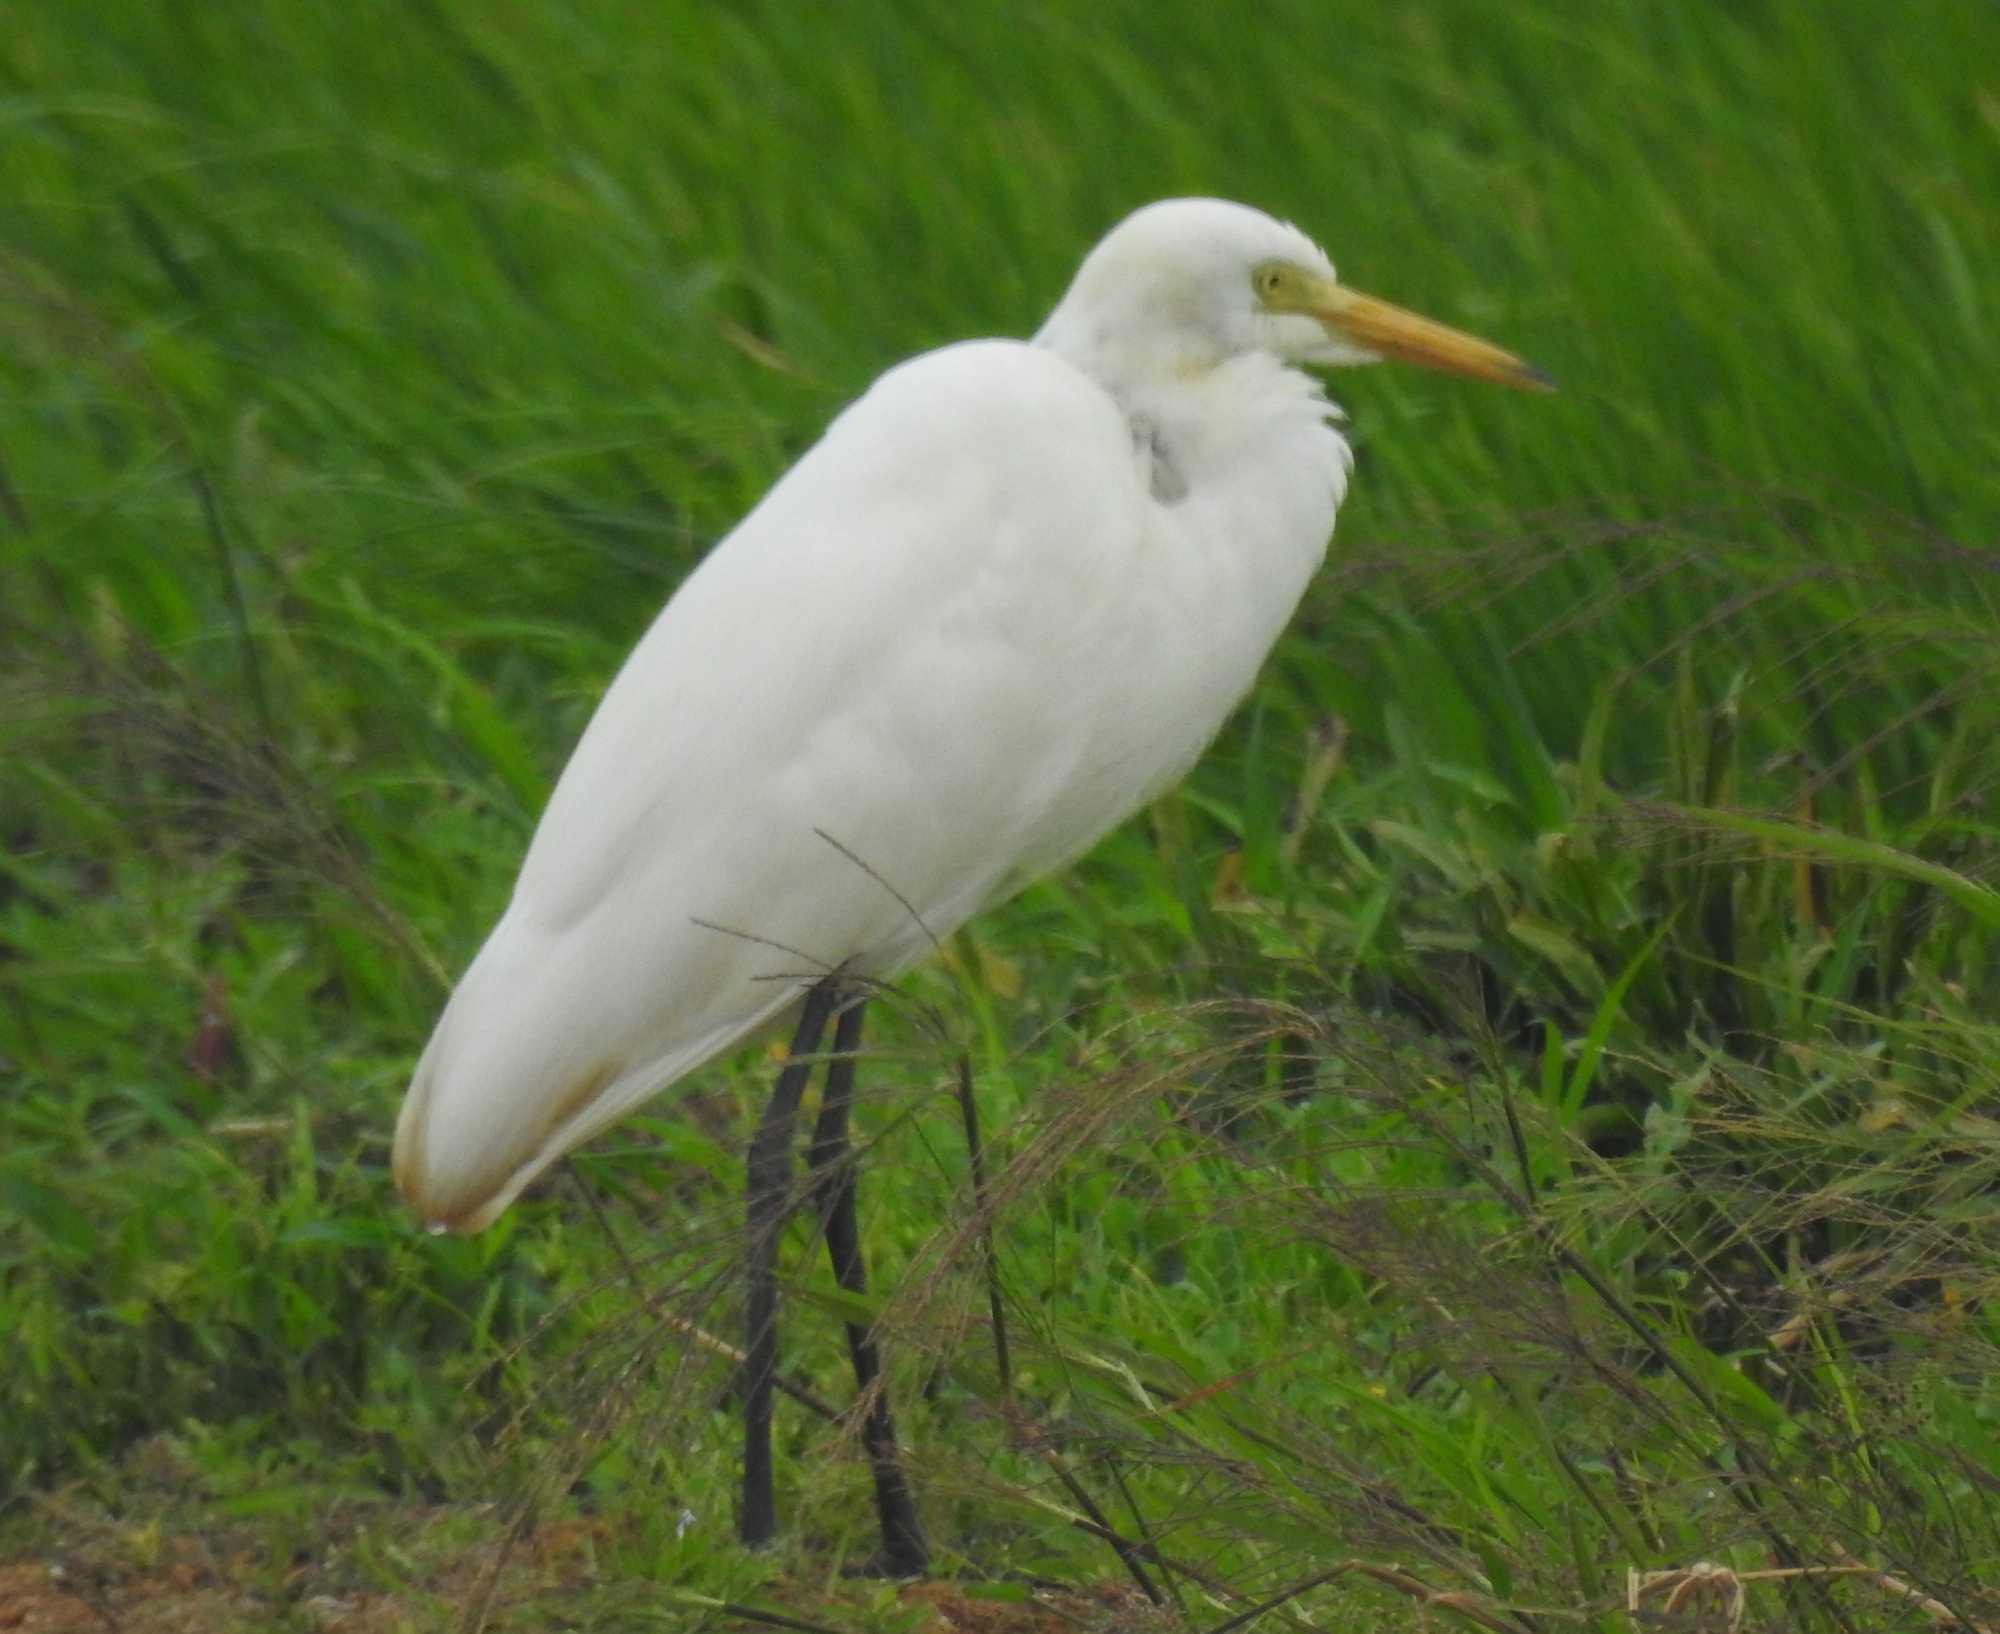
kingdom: Animalia
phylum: Chordata
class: Aves
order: Pelecaniformes
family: Ardeidae
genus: Egretta
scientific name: Egretta intermedia
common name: Intermediate egret
